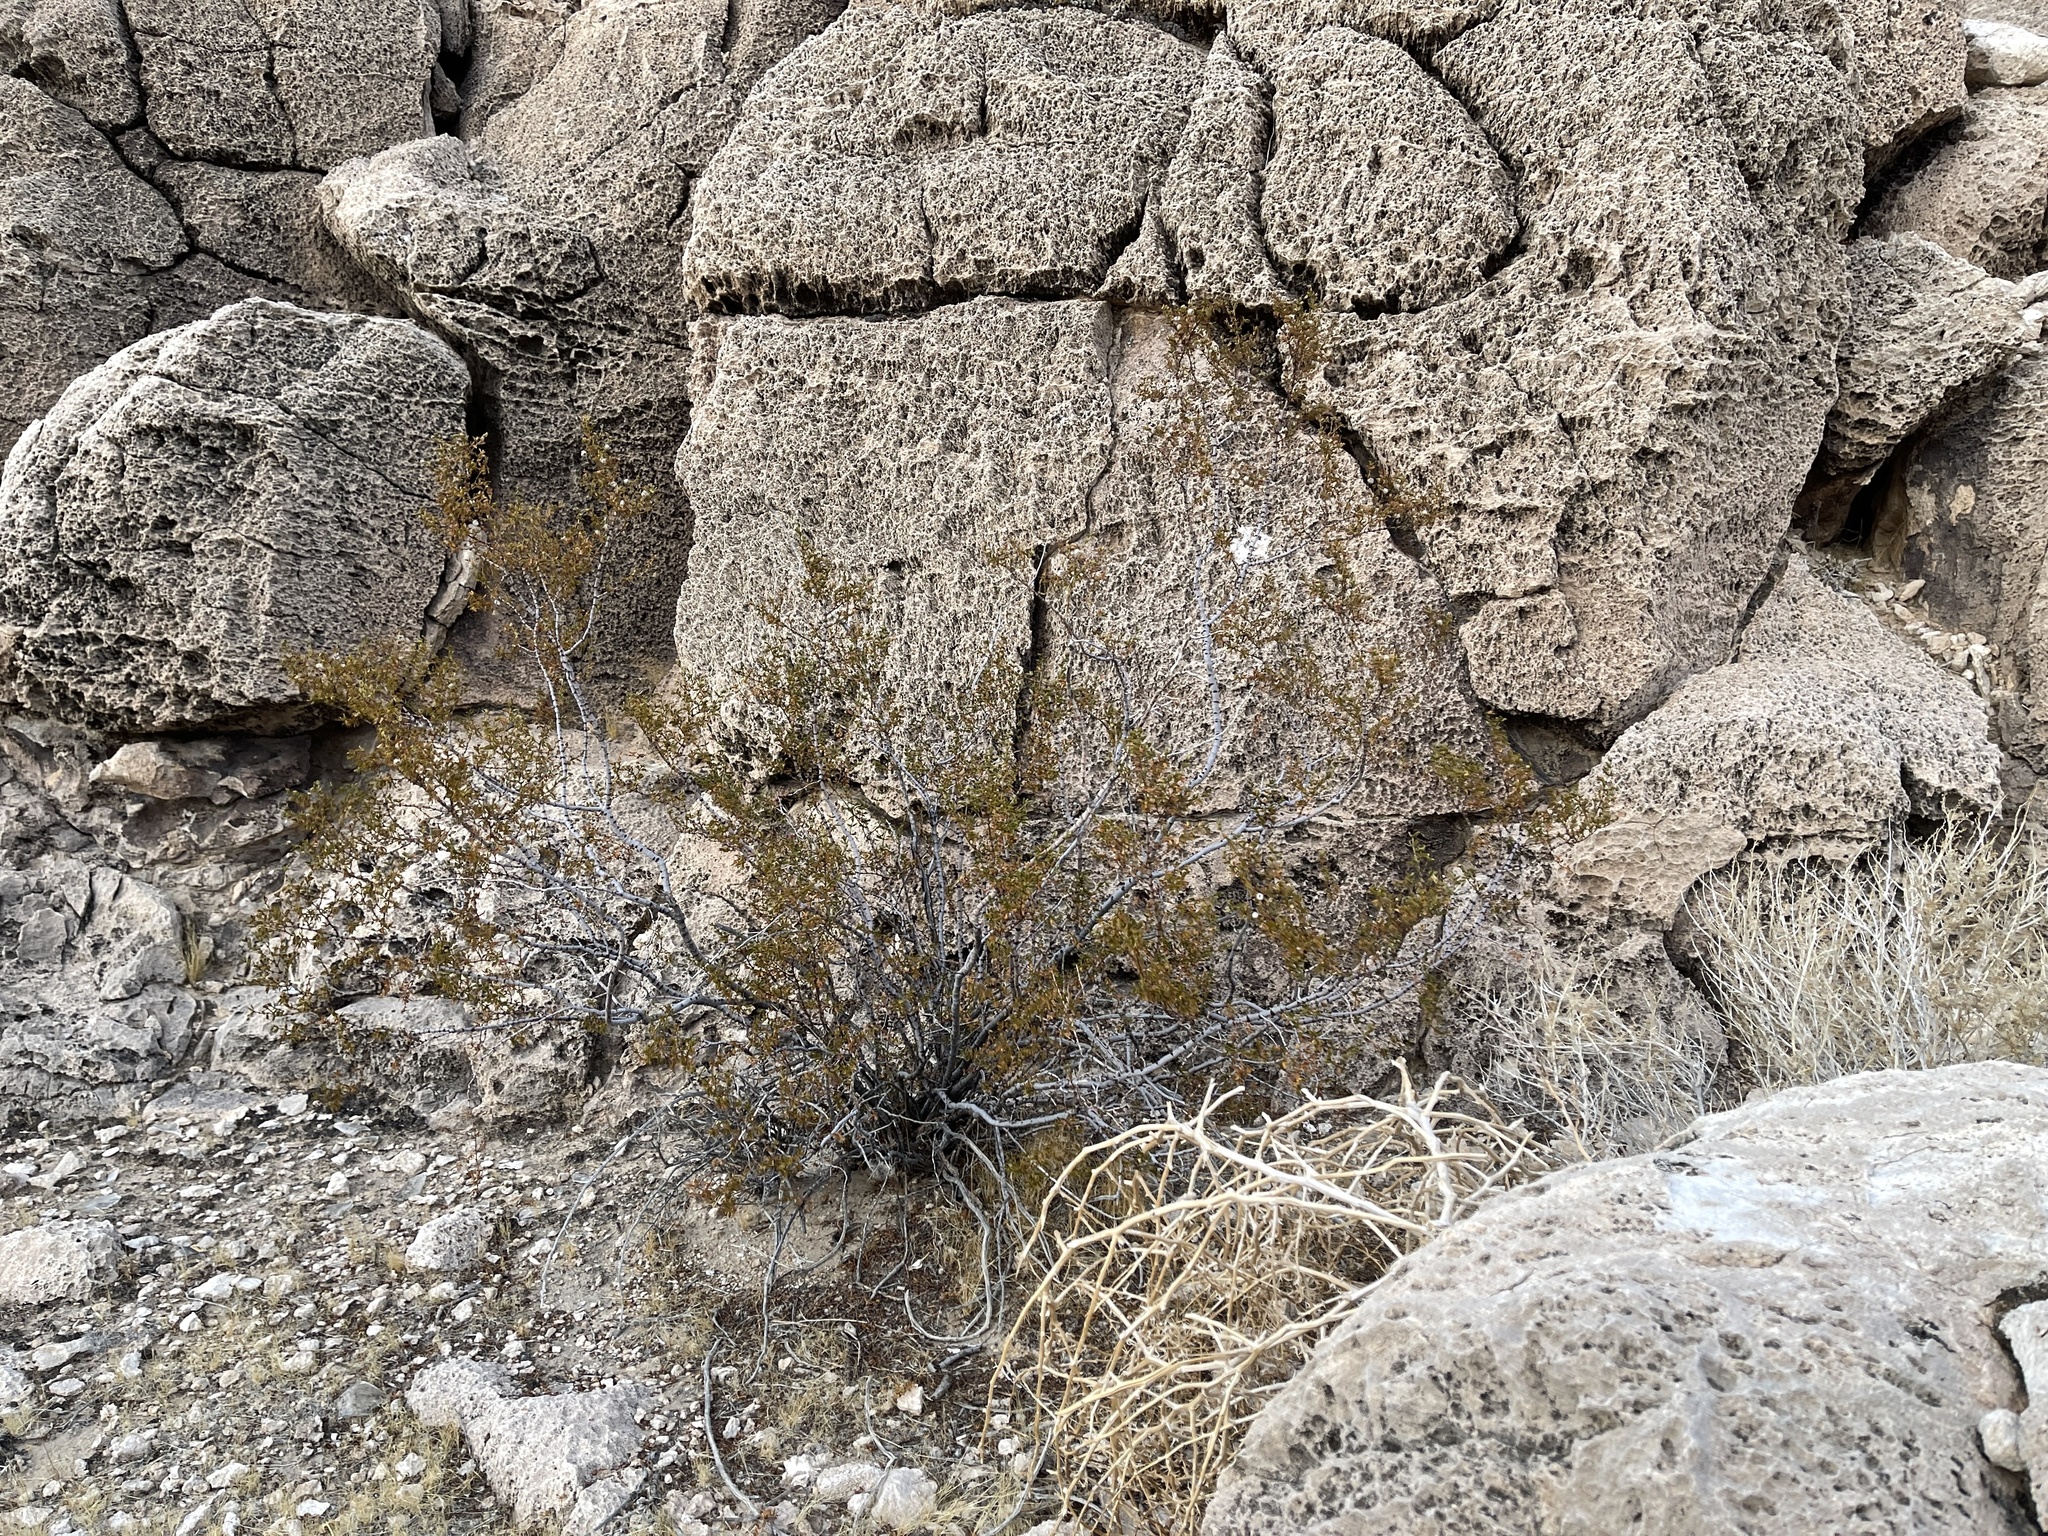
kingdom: Plantae
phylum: Tracheophyta
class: Magnoliopsida
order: Zygophyllales
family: Zygophyllaceae
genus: Larrea
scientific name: Larrea tridentata
